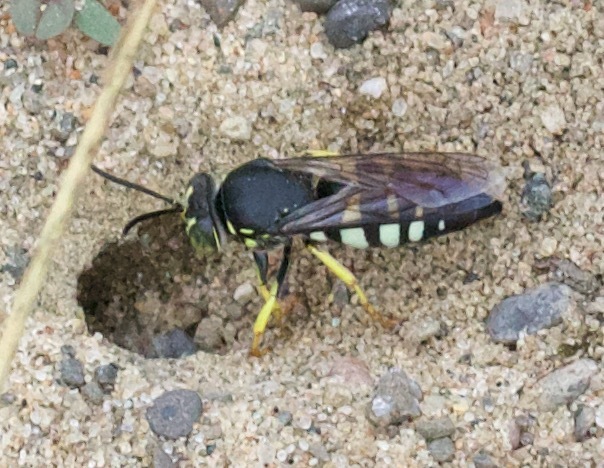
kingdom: Animalia
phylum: Arthropoda
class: Insecta
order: Hymenoptera
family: Crabronidae
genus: Bicyrtes
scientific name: Bicyrtes quadrifasciatus
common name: Four-banded stink bug hunter wasp
